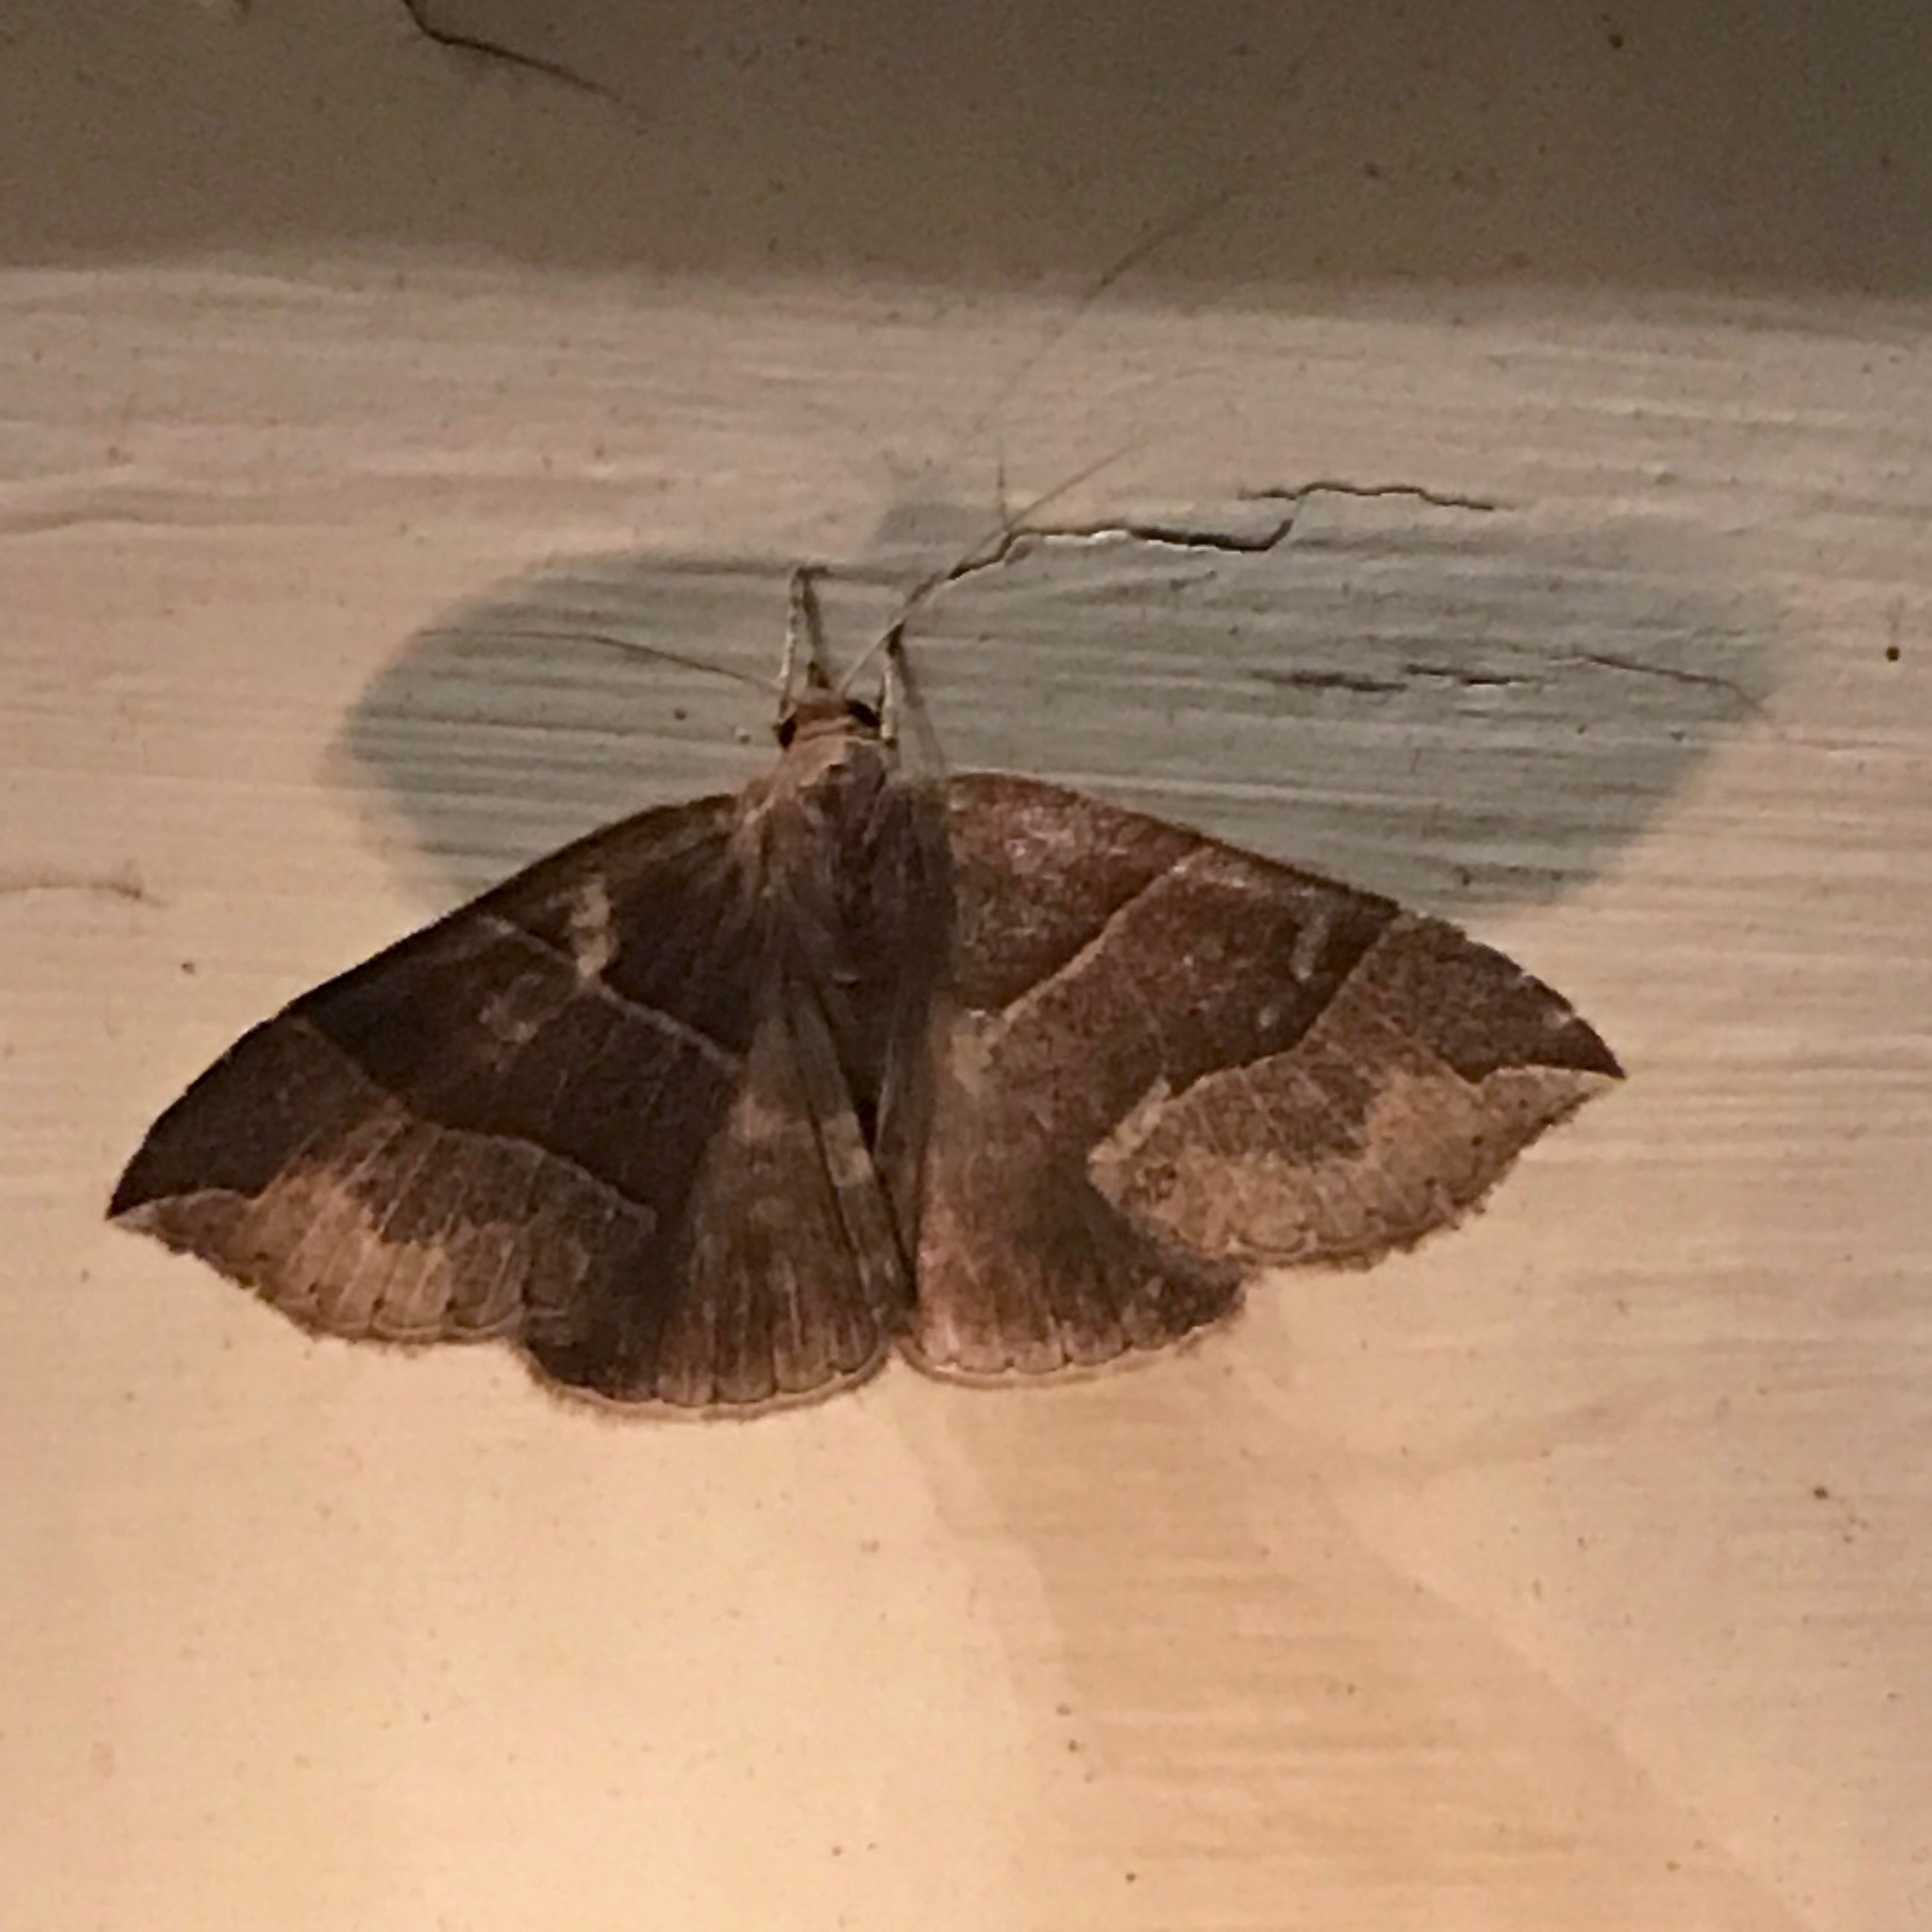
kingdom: Animalia
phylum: Arthropoda
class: Insecta
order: Lepidoptera
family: Erebidae
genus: Parallelia
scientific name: Parallelia bistriaris
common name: Maple looper moth
